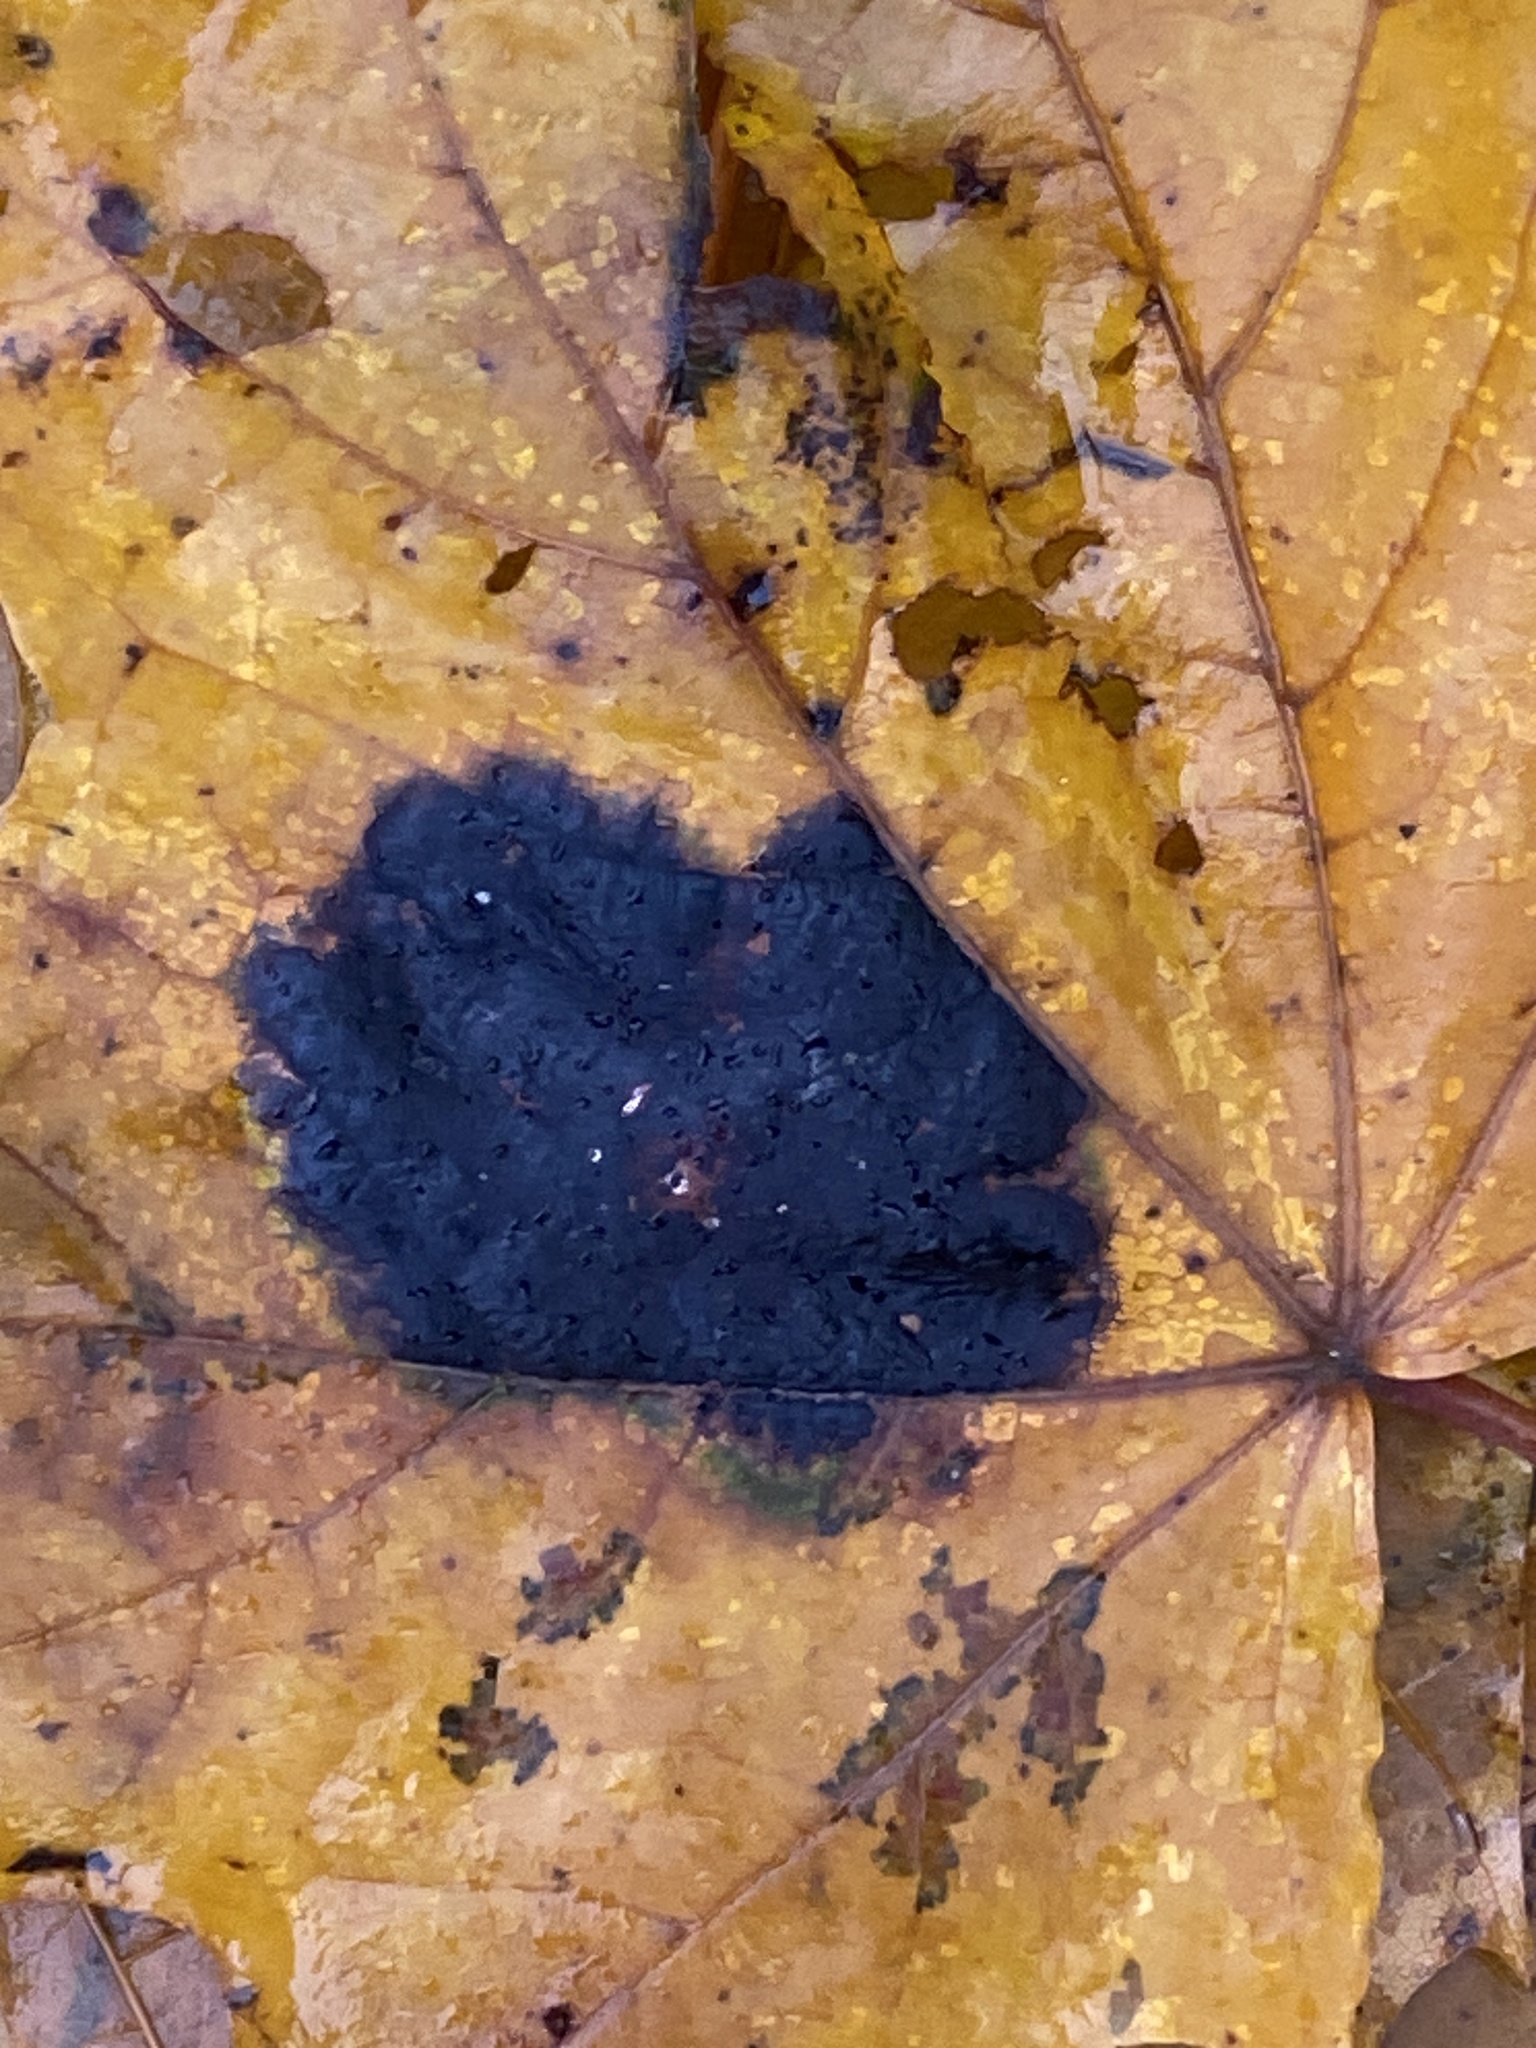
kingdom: Fungi
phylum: Ascomycota
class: Leotiomycetes
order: Rhytismatales
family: Rhytismataceae
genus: Rhytisma
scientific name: Rhytisma acerinum
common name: European tar spot
